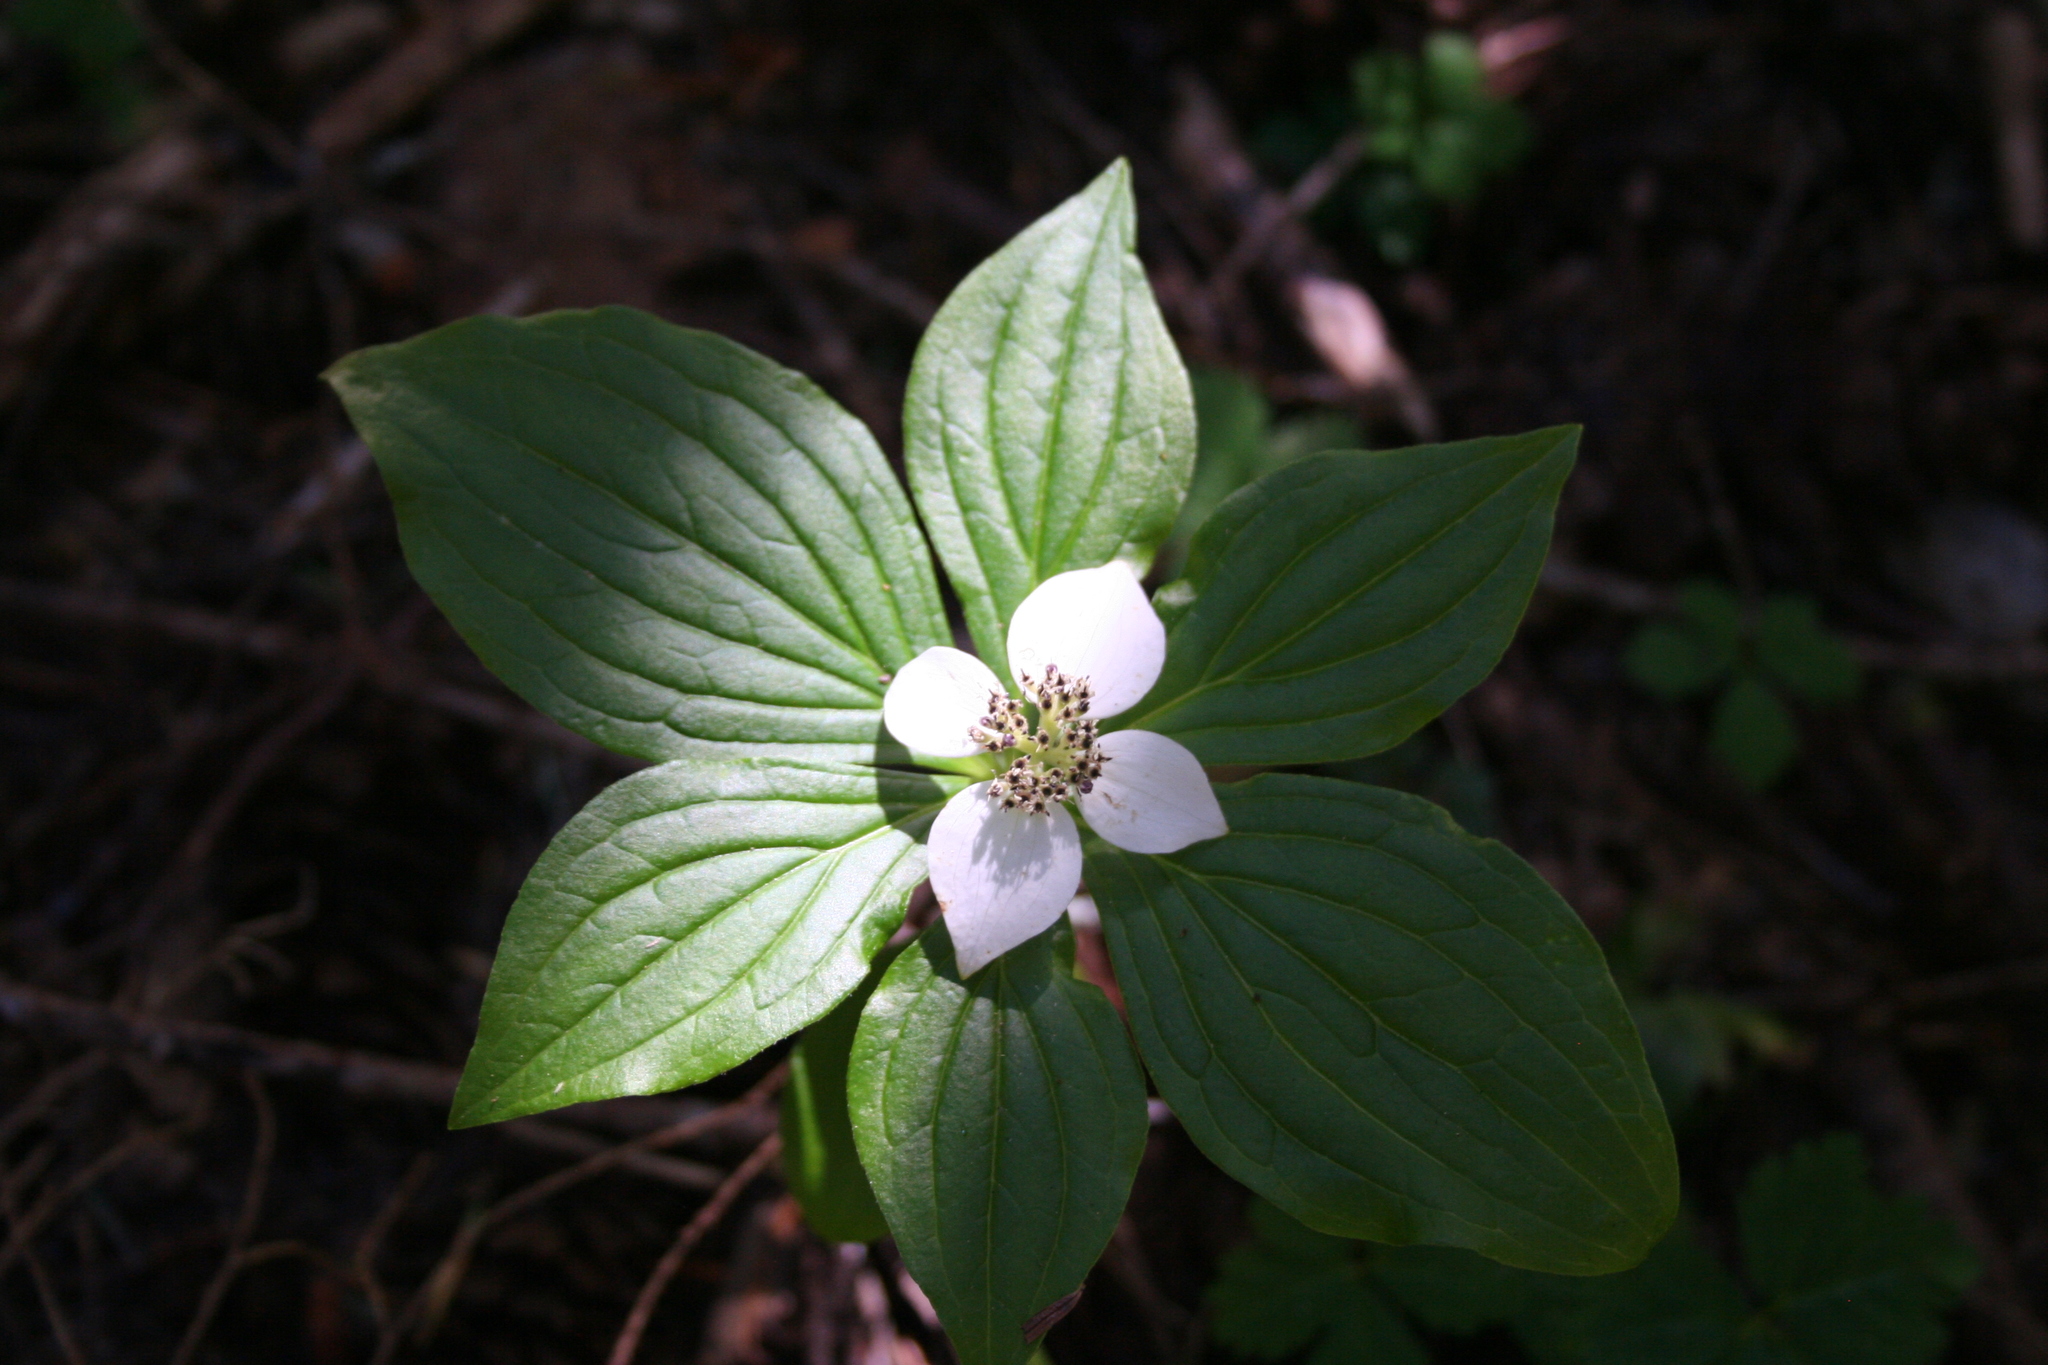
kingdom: Plantae
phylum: Tracheophyta
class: Magnoliopsida
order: Cornales
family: Cornaceae
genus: Cornus
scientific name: Cornus unalaschkensis
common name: Alaska bunchberry
